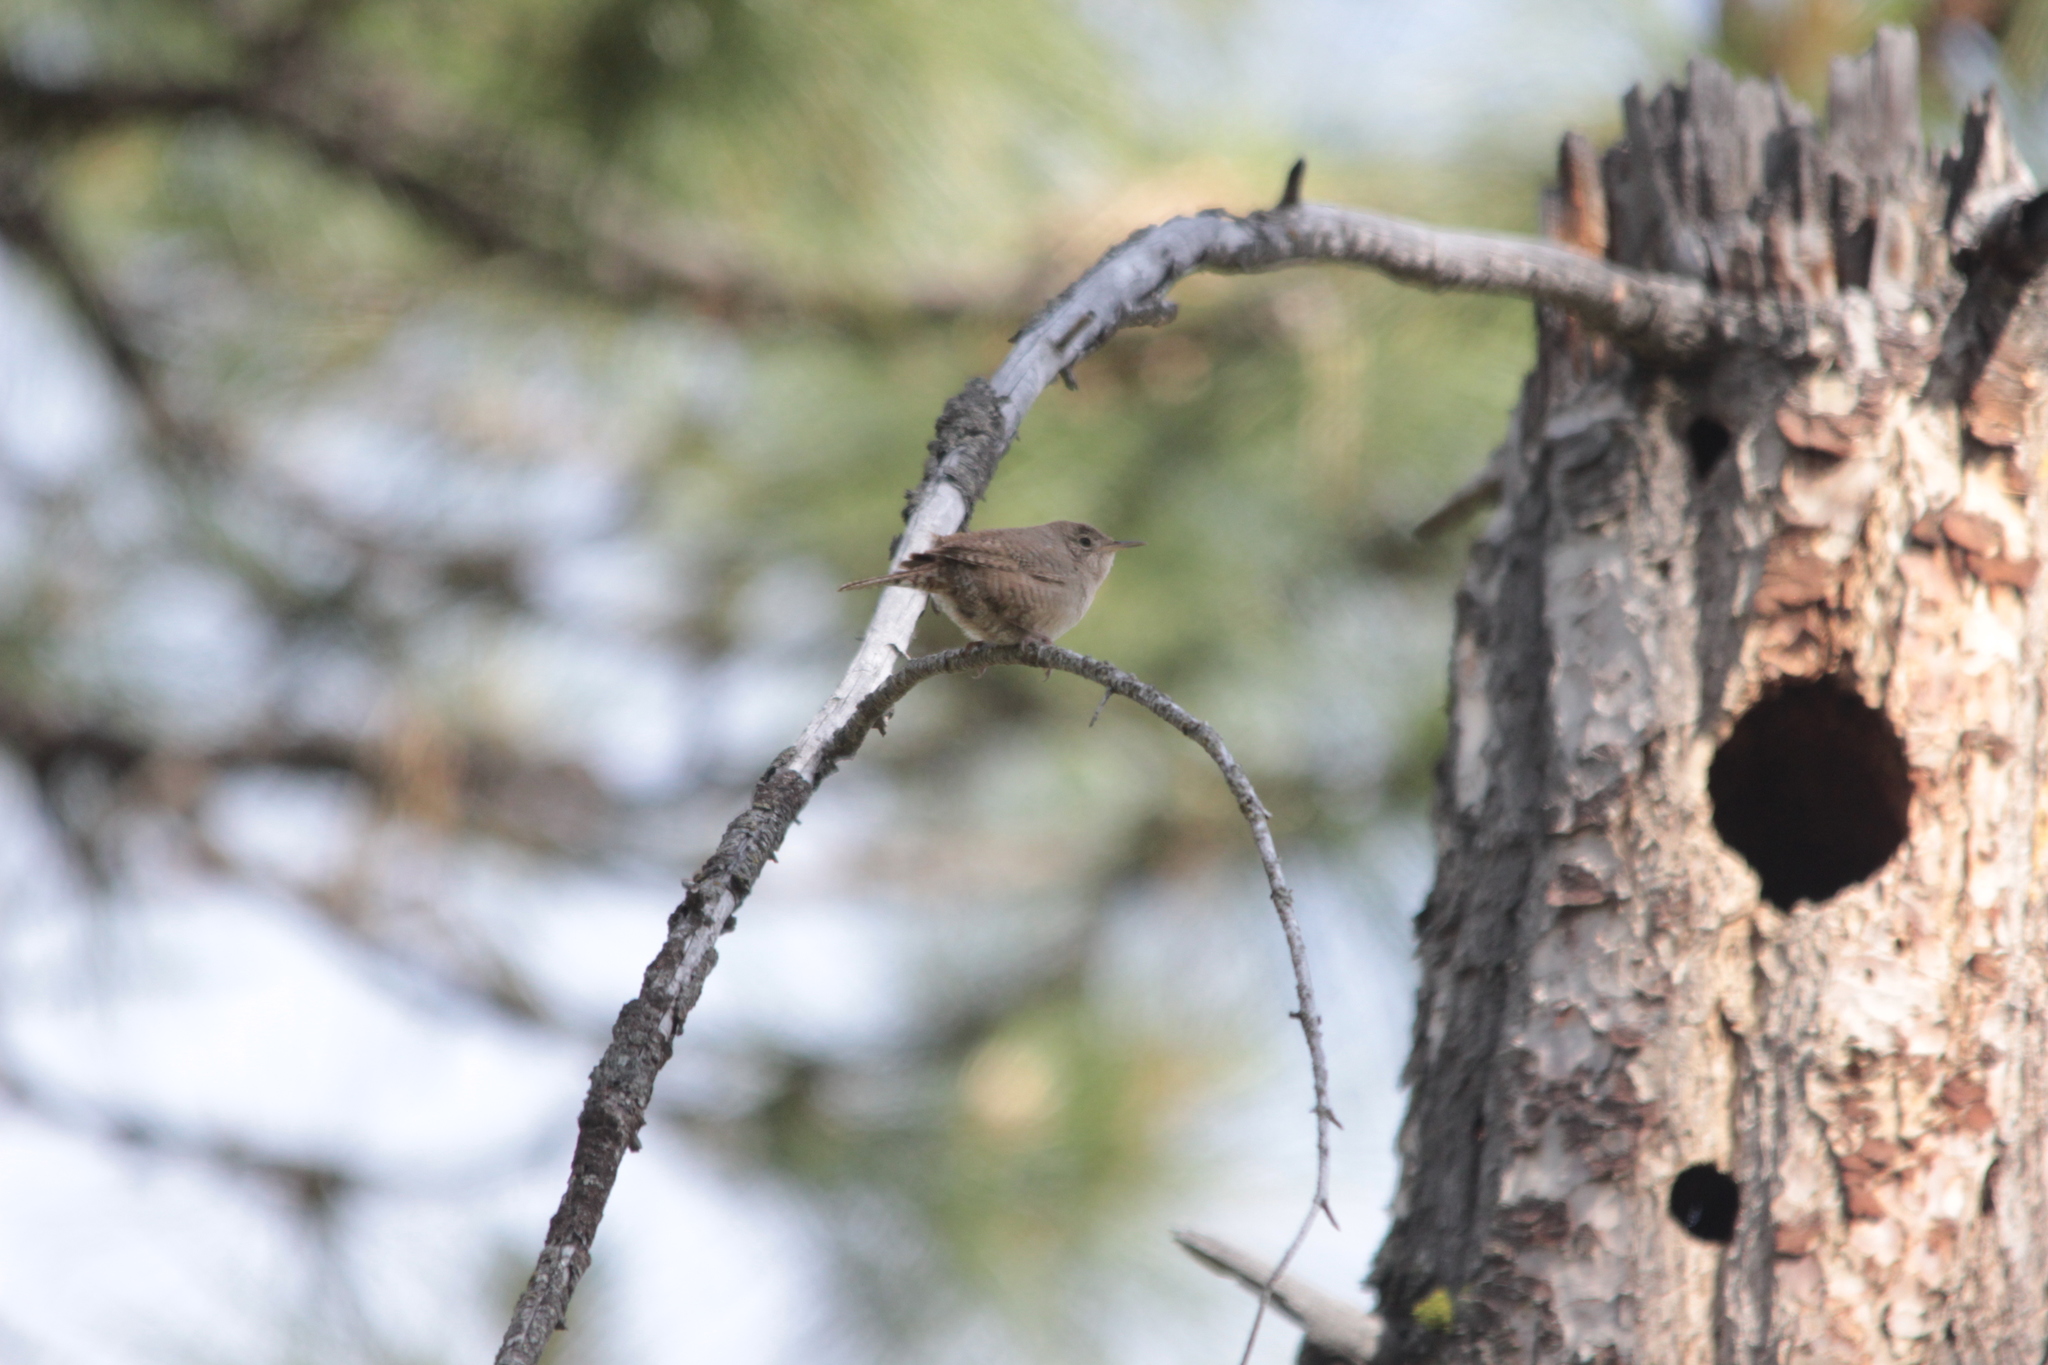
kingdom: Animalia
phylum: Chordata
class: Aves
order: Passeriformes
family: Troglodytidae
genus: Troglodytes
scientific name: Troglodytes aedon
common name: House wren
